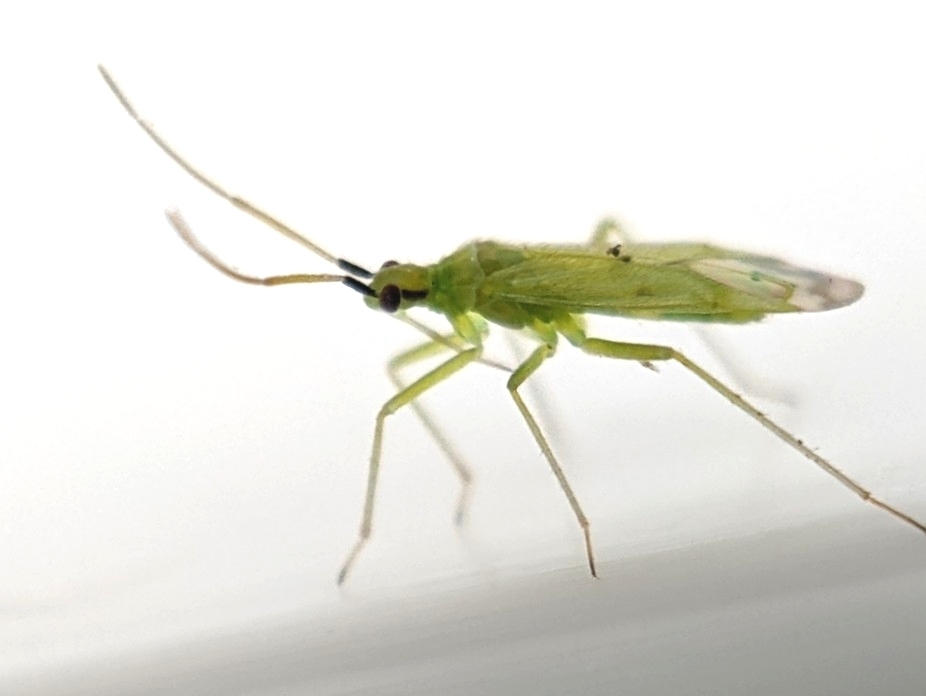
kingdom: Animalia
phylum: Arthropoda
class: Insecta
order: Hemiptera
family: Miridae
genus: Macrolophus
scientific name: Macrolophus costalis
